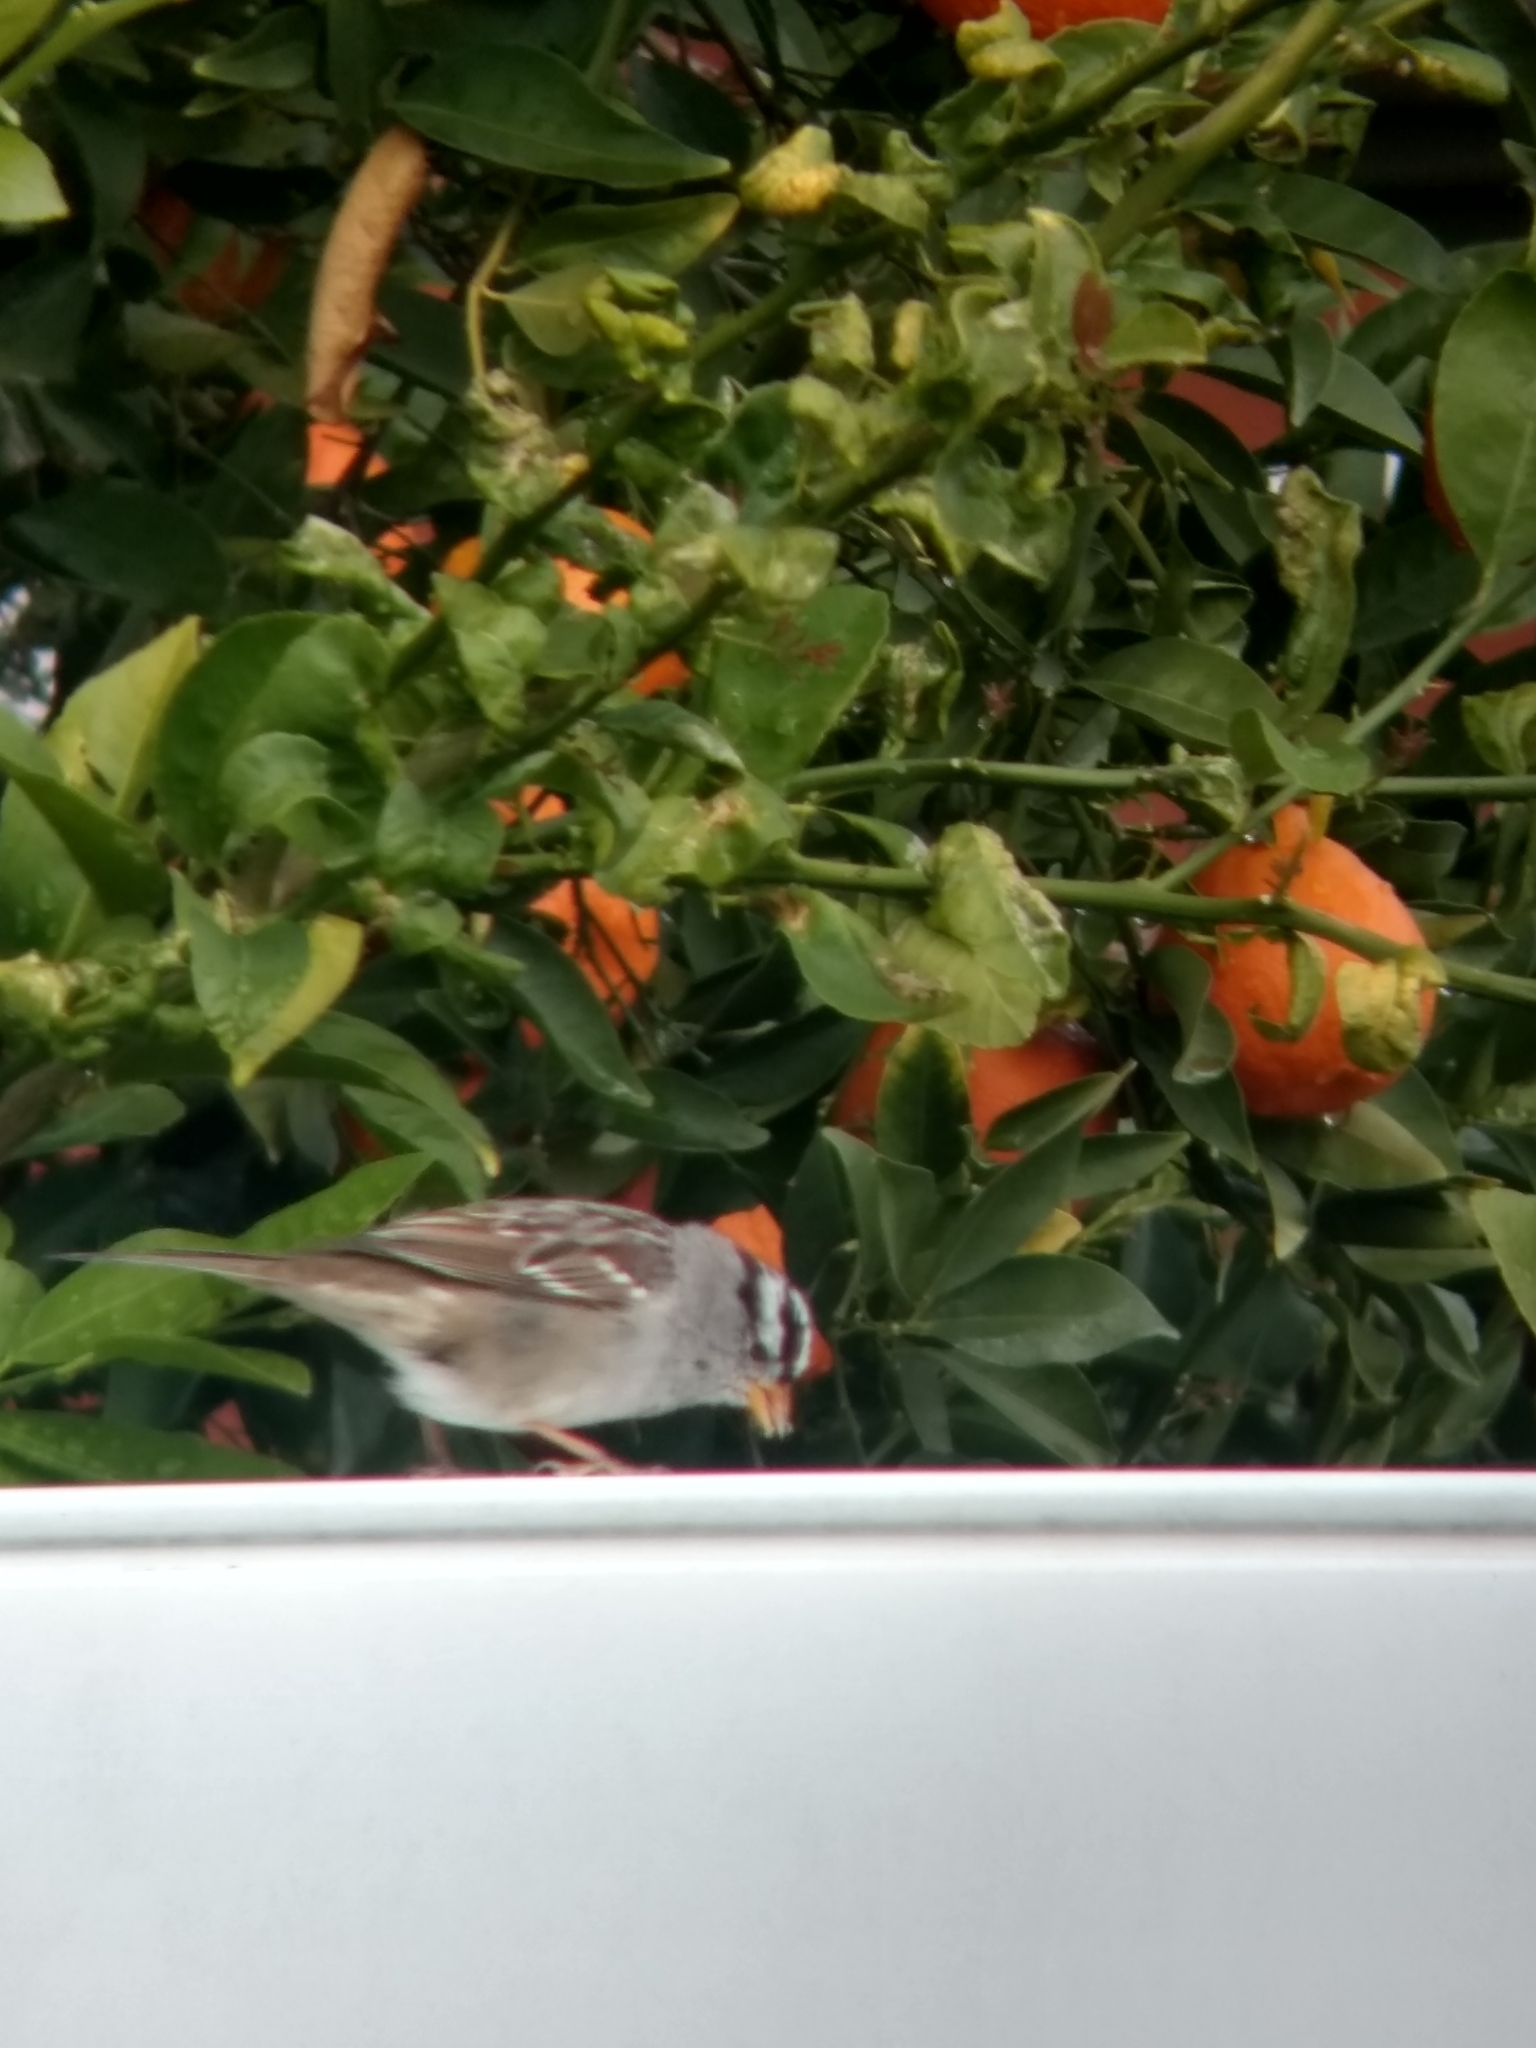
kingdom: Animalia
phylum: Chordata
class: Aves
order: Passeriformes
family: Passerellidae
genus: Zonotrichia
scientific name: Zonotrichia leucophrys
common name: White-crowned sparrow
